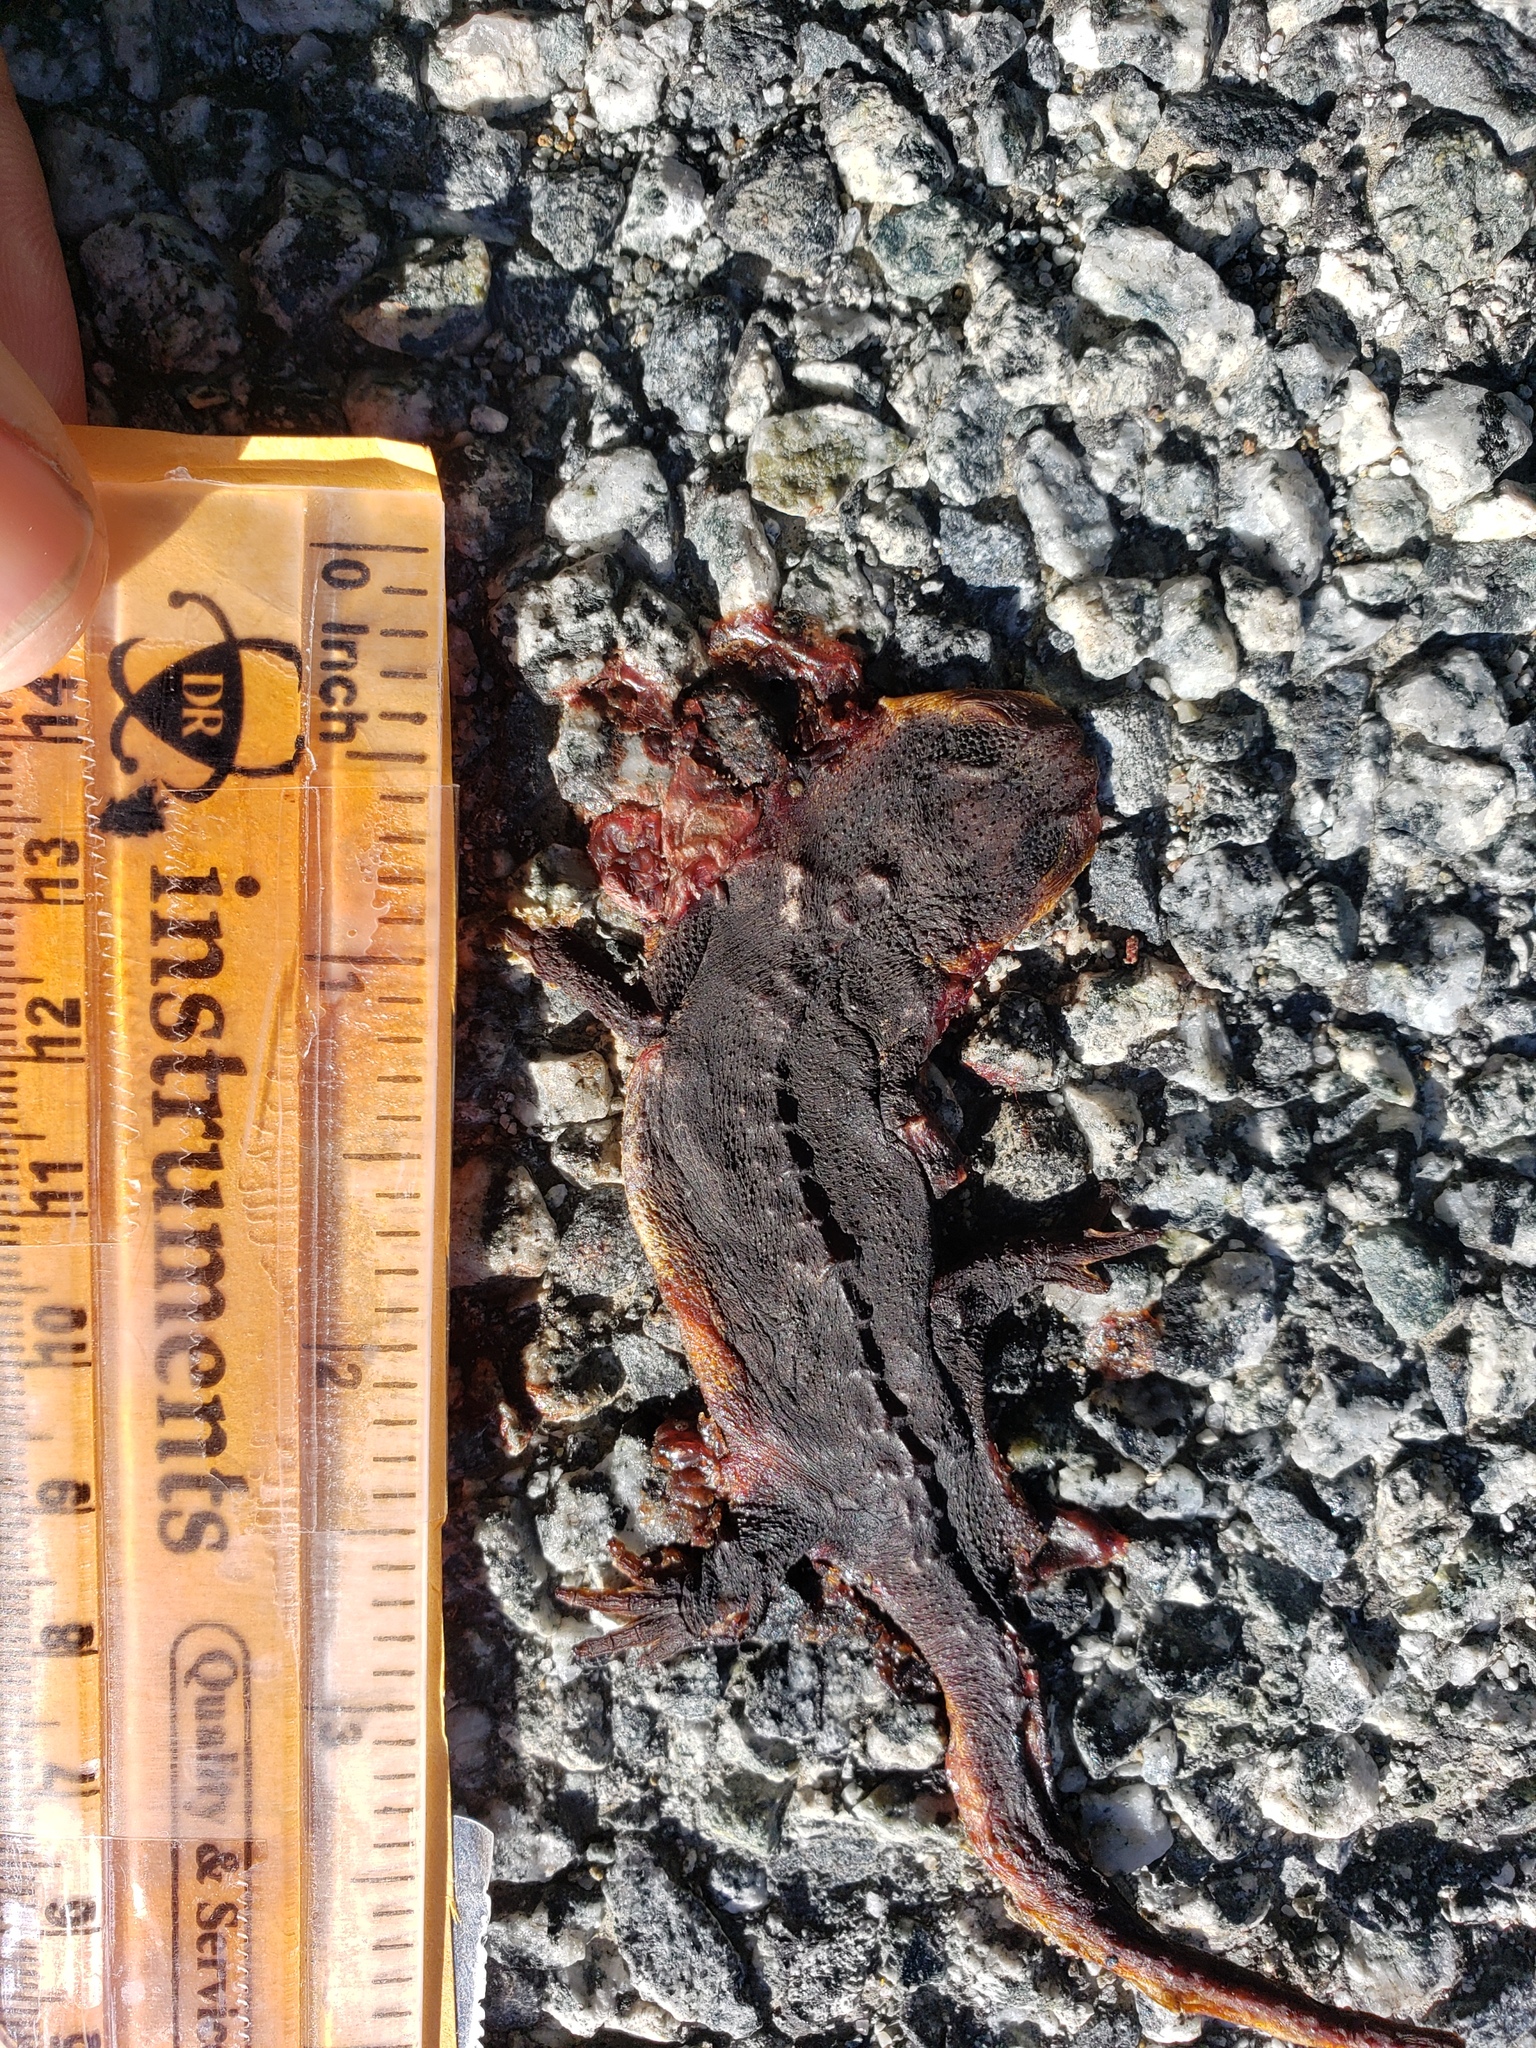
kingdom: Animalia
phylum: Chordata
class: Amphibia
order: Caudata
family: Salamandridae
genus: Taricha
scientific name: Taricha
